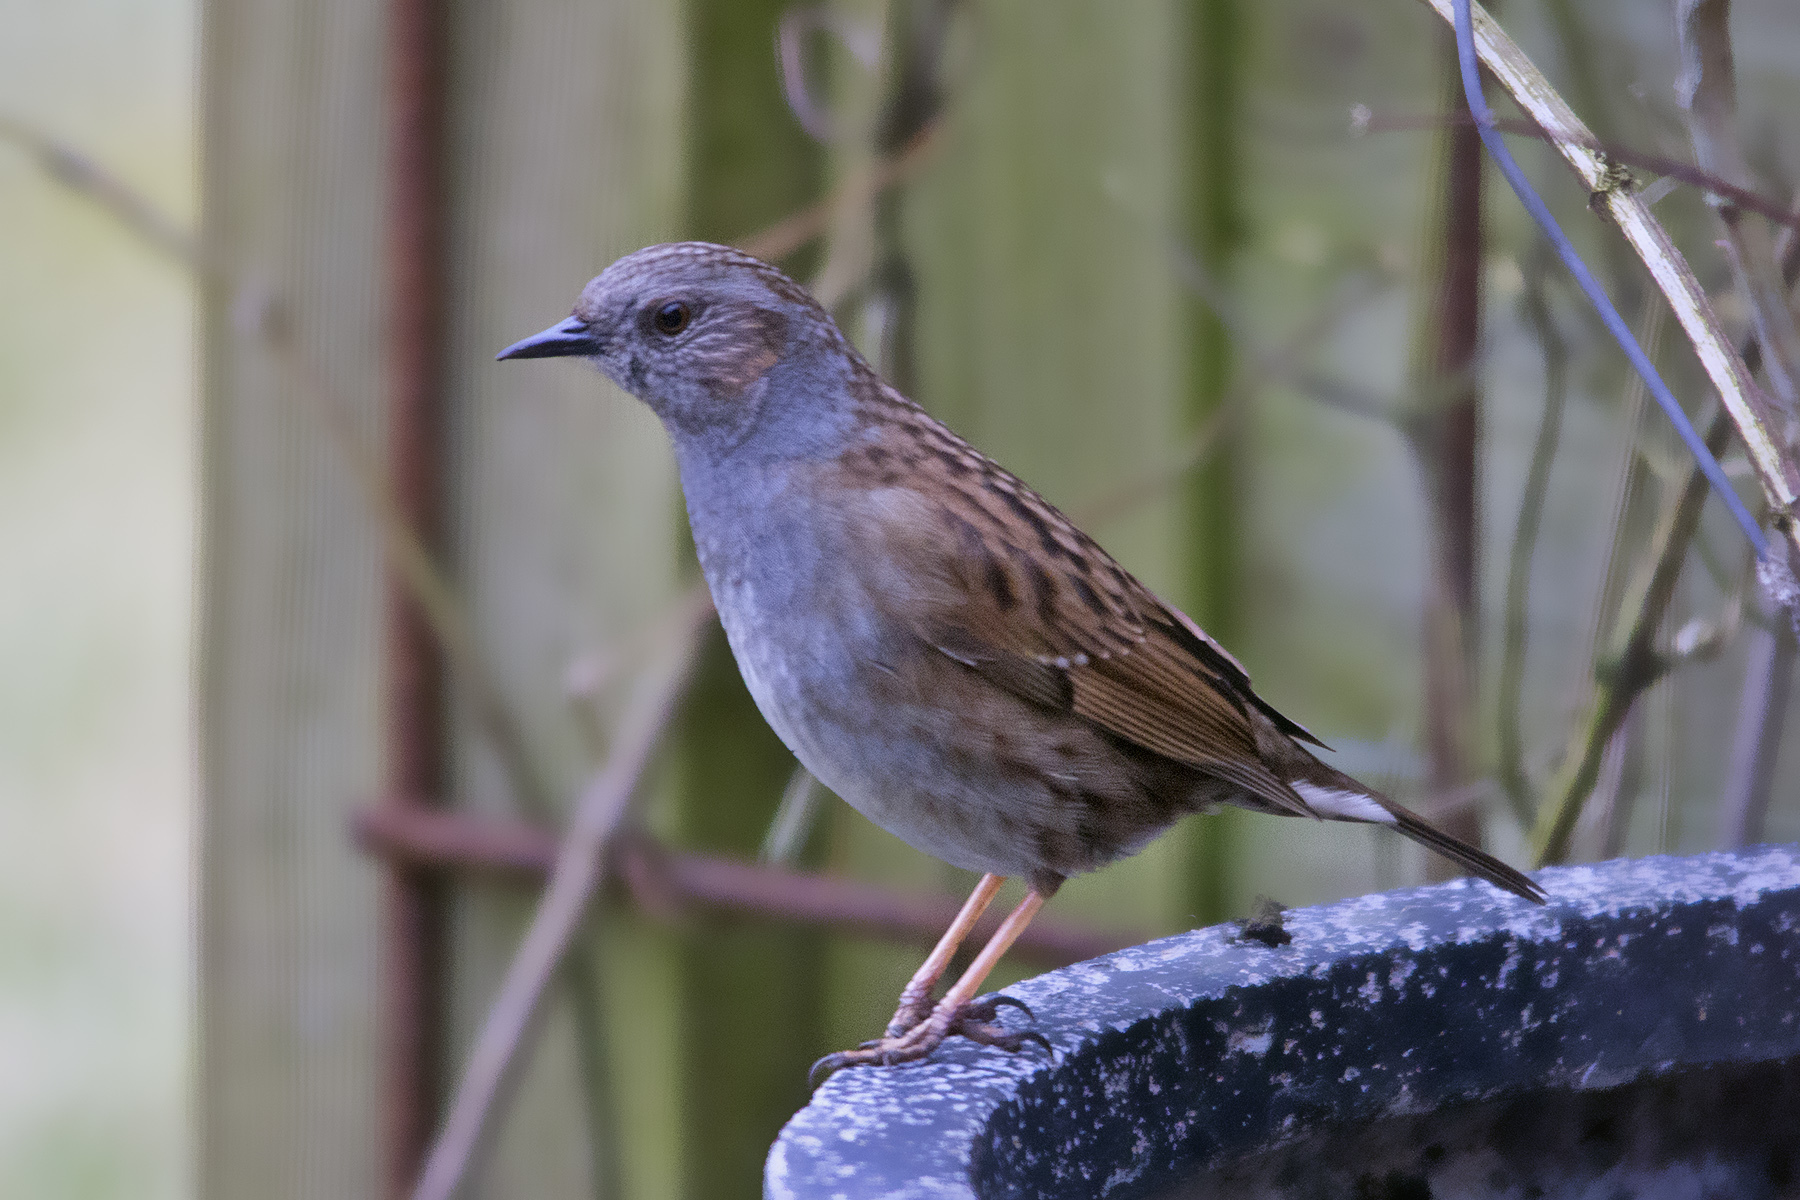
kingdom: Animalia
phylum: Chordata
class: Aves
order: Passeriformes
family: Prunellidae
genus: Prunella
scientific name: Prunella modularis
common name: Dunnock
